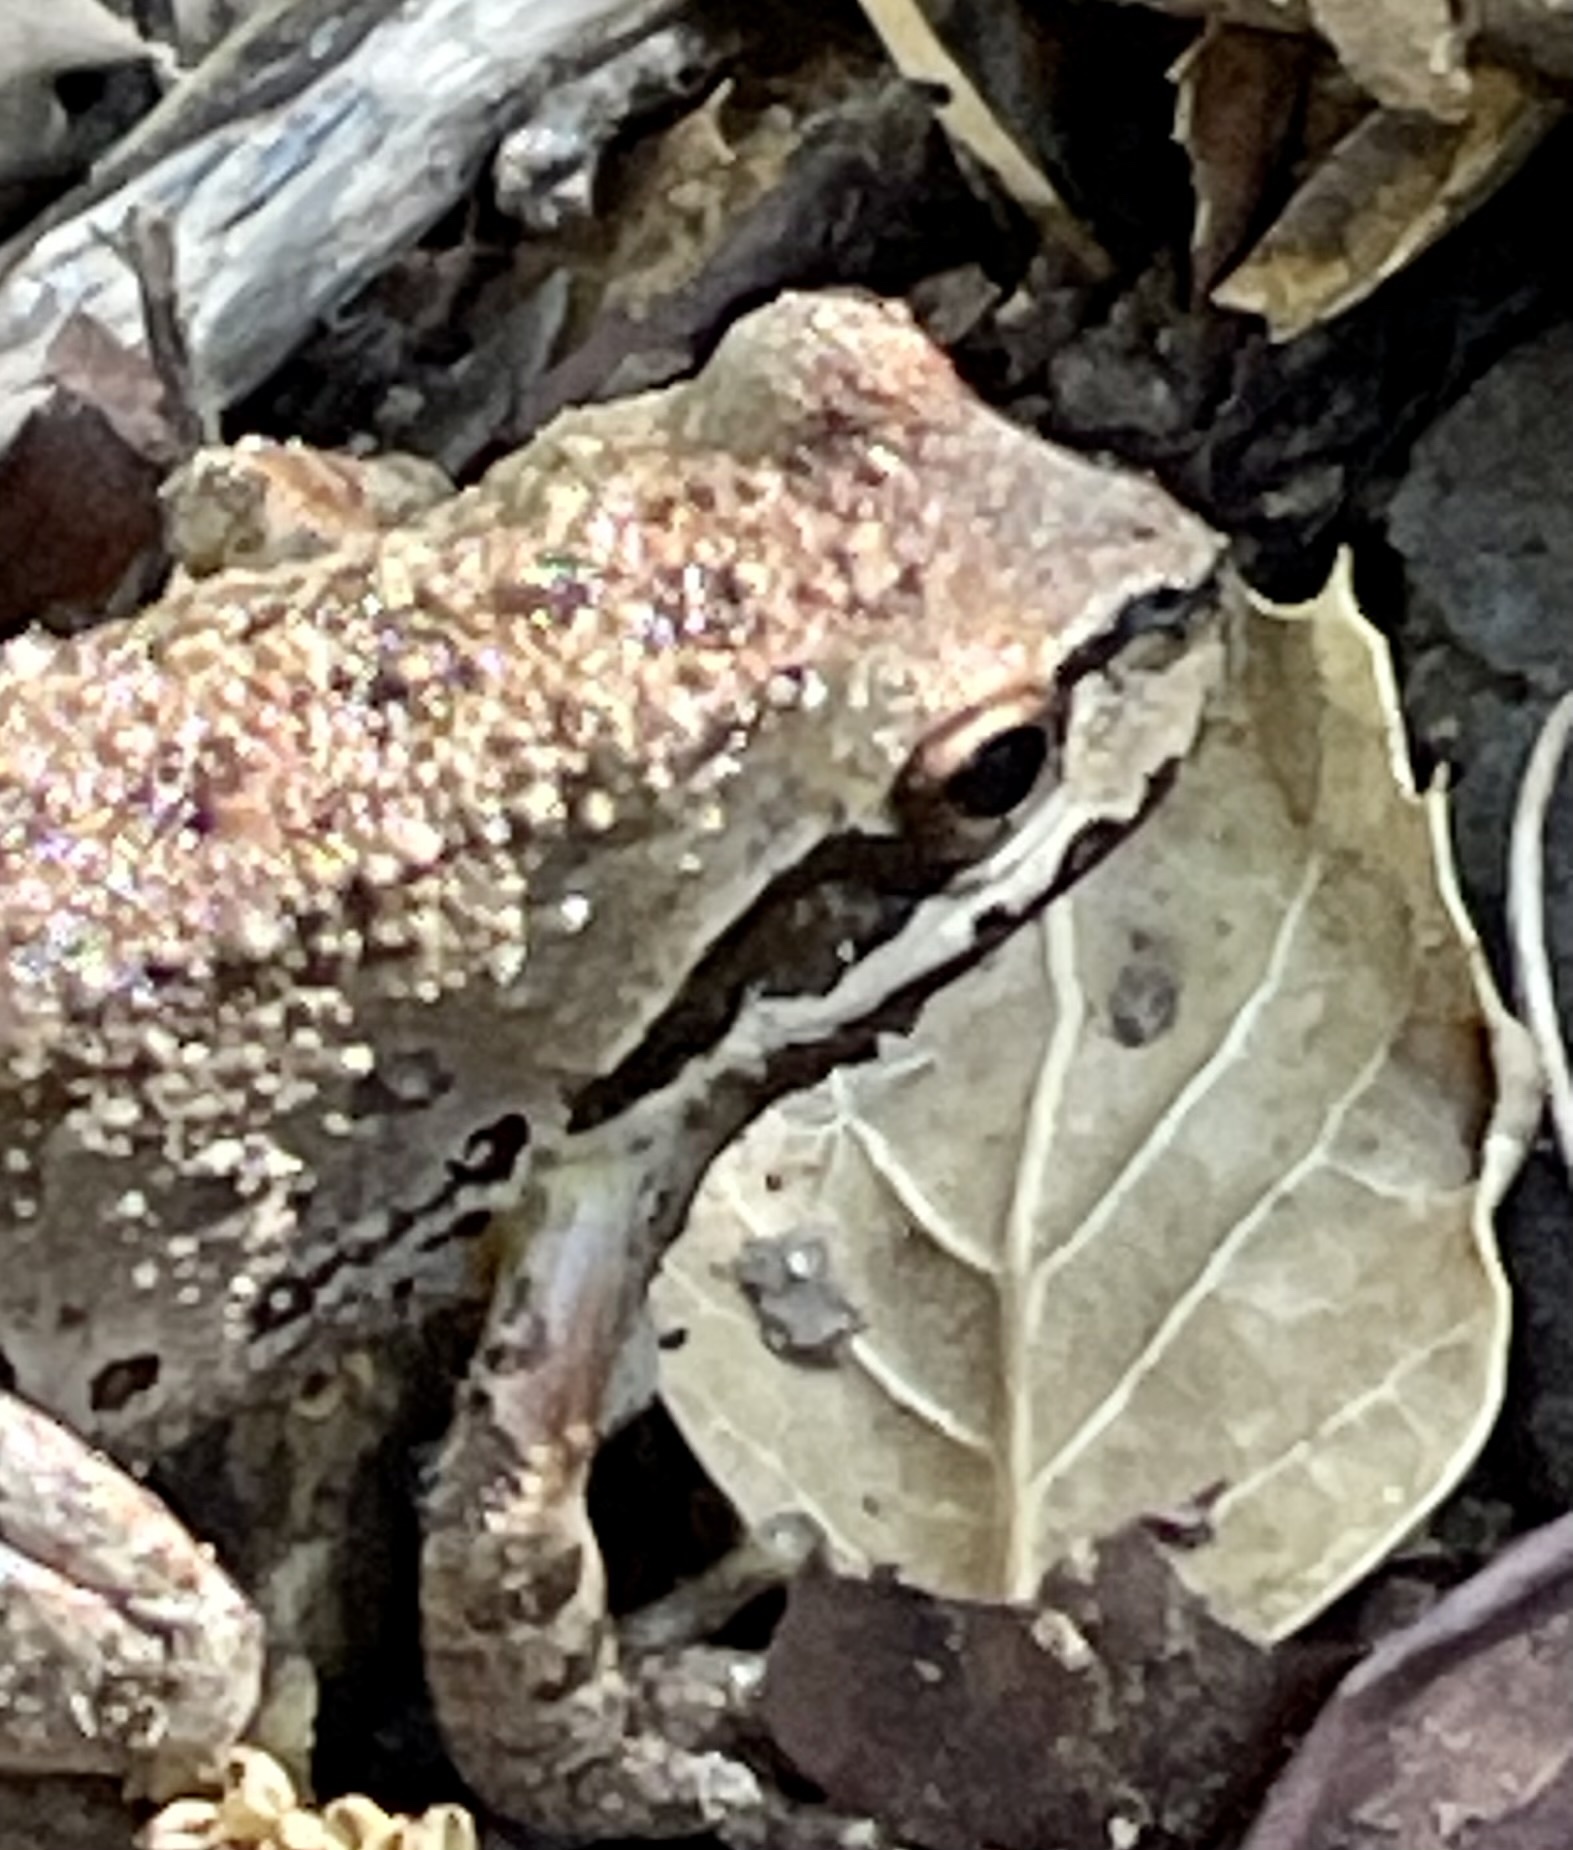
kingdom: Animalia
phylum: Chordata
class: Amphibia
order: Anura
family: Hylidae
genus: Pseudacris
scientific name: Pseudacris regilla
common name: Pacific chorus frog
